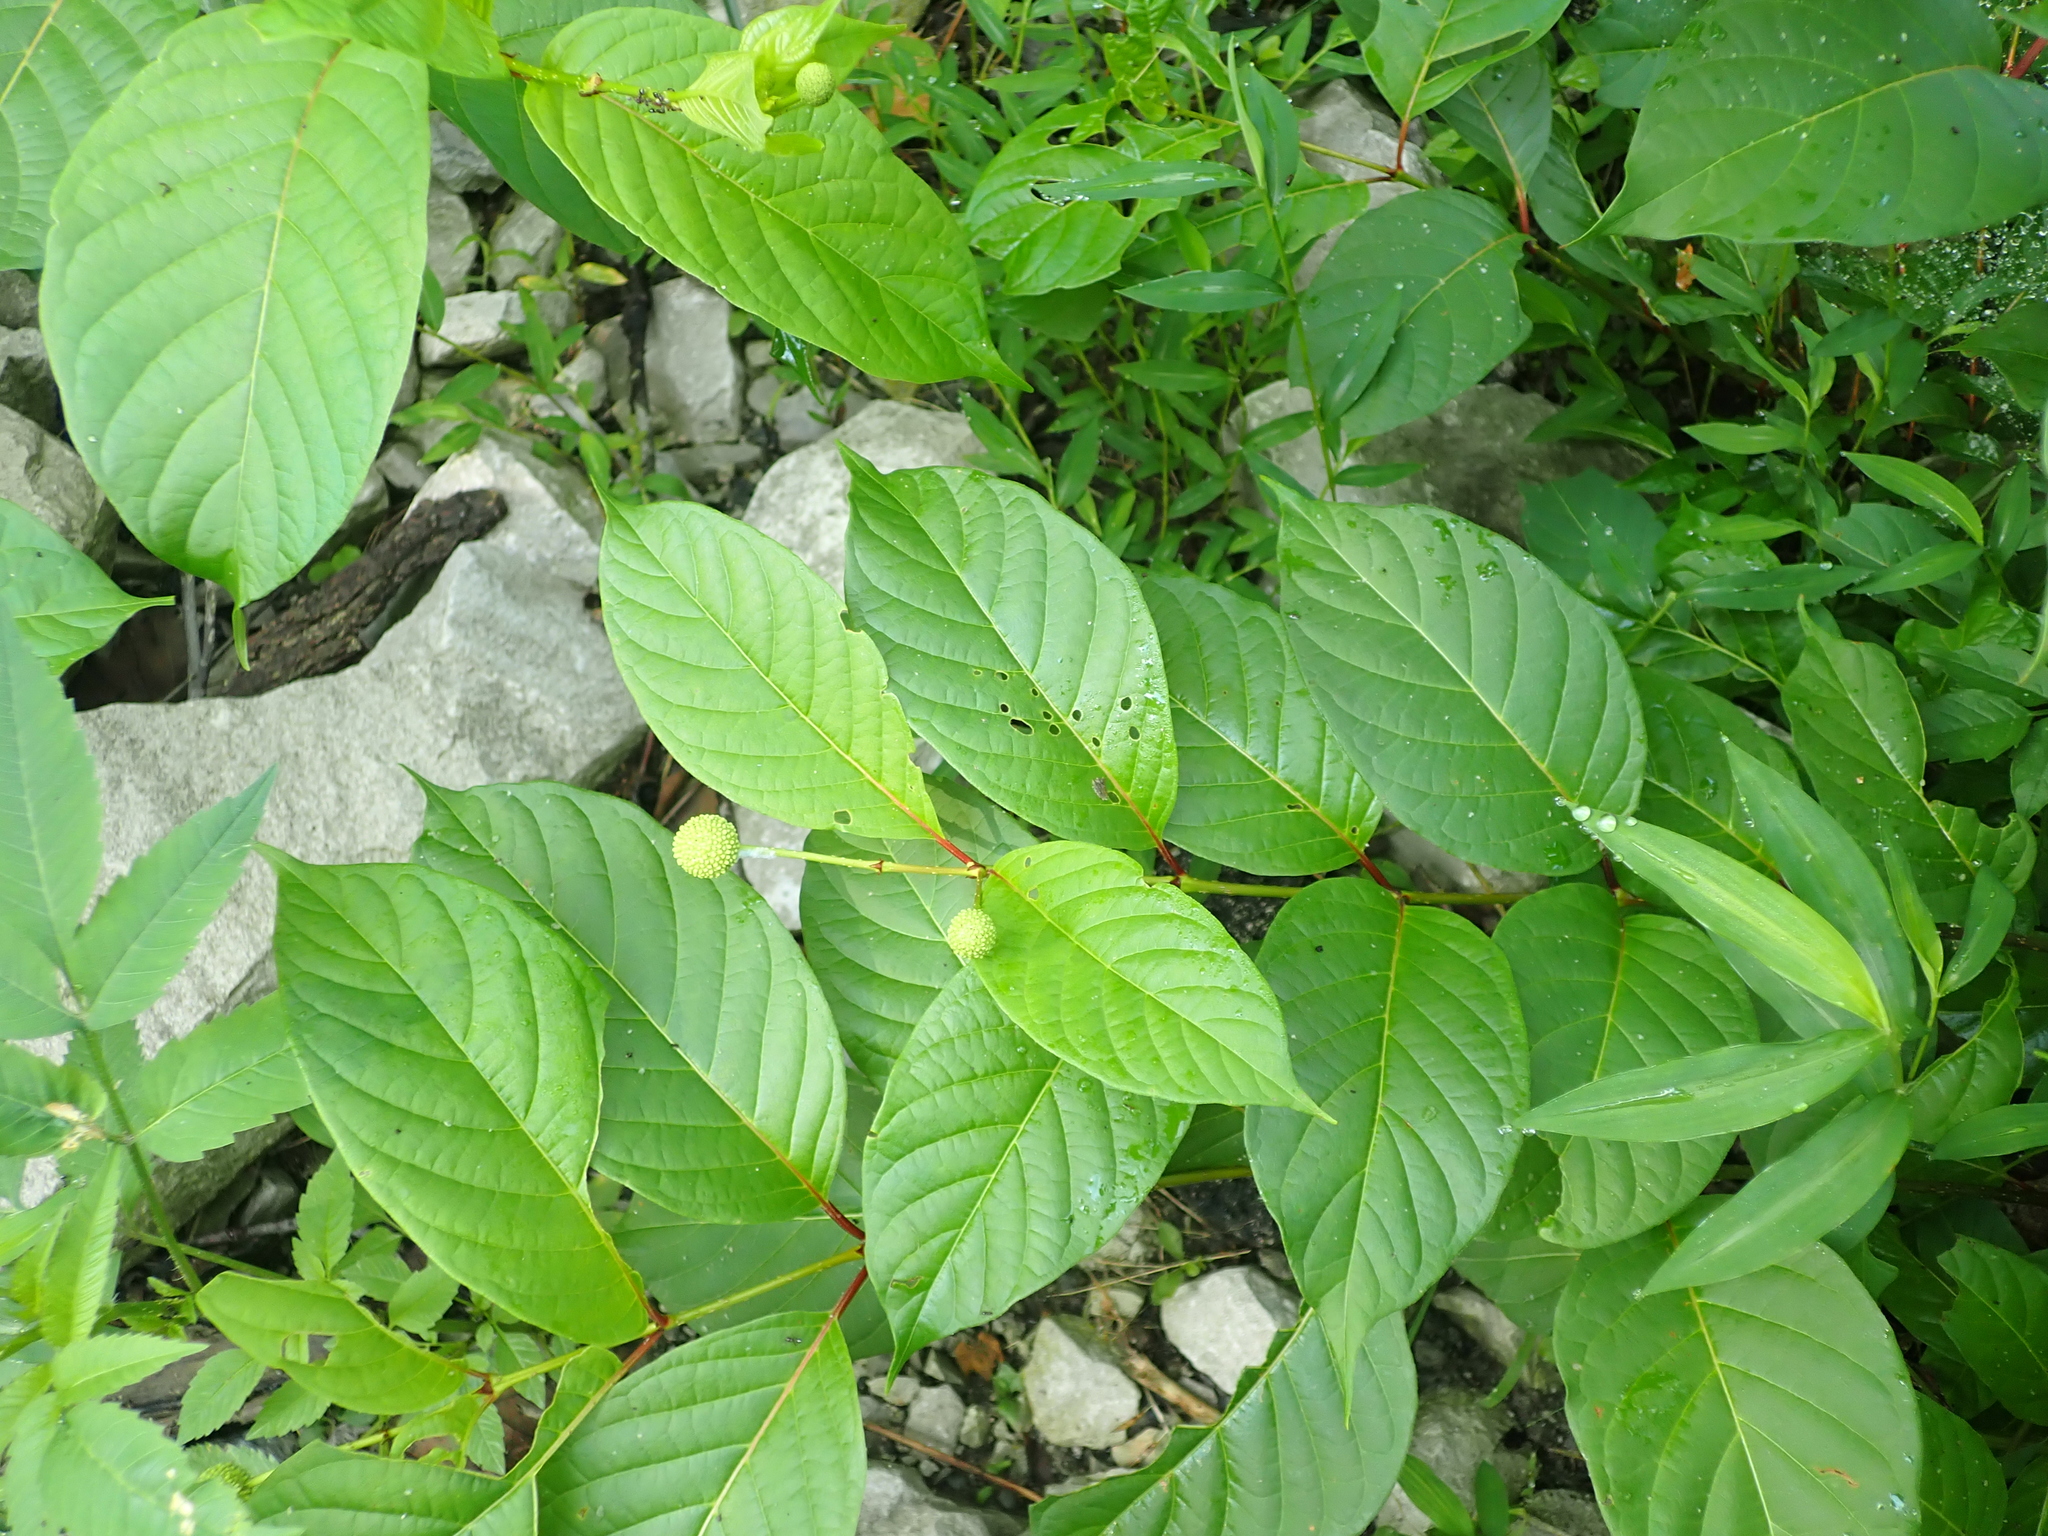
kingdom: Plantae
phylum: Tracheophyta
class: Magnoliopsida
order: Gentianales
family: Rubiaceae
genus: Cephalanthus
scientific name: Cephalanthus occidentalis
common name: Button-willow
